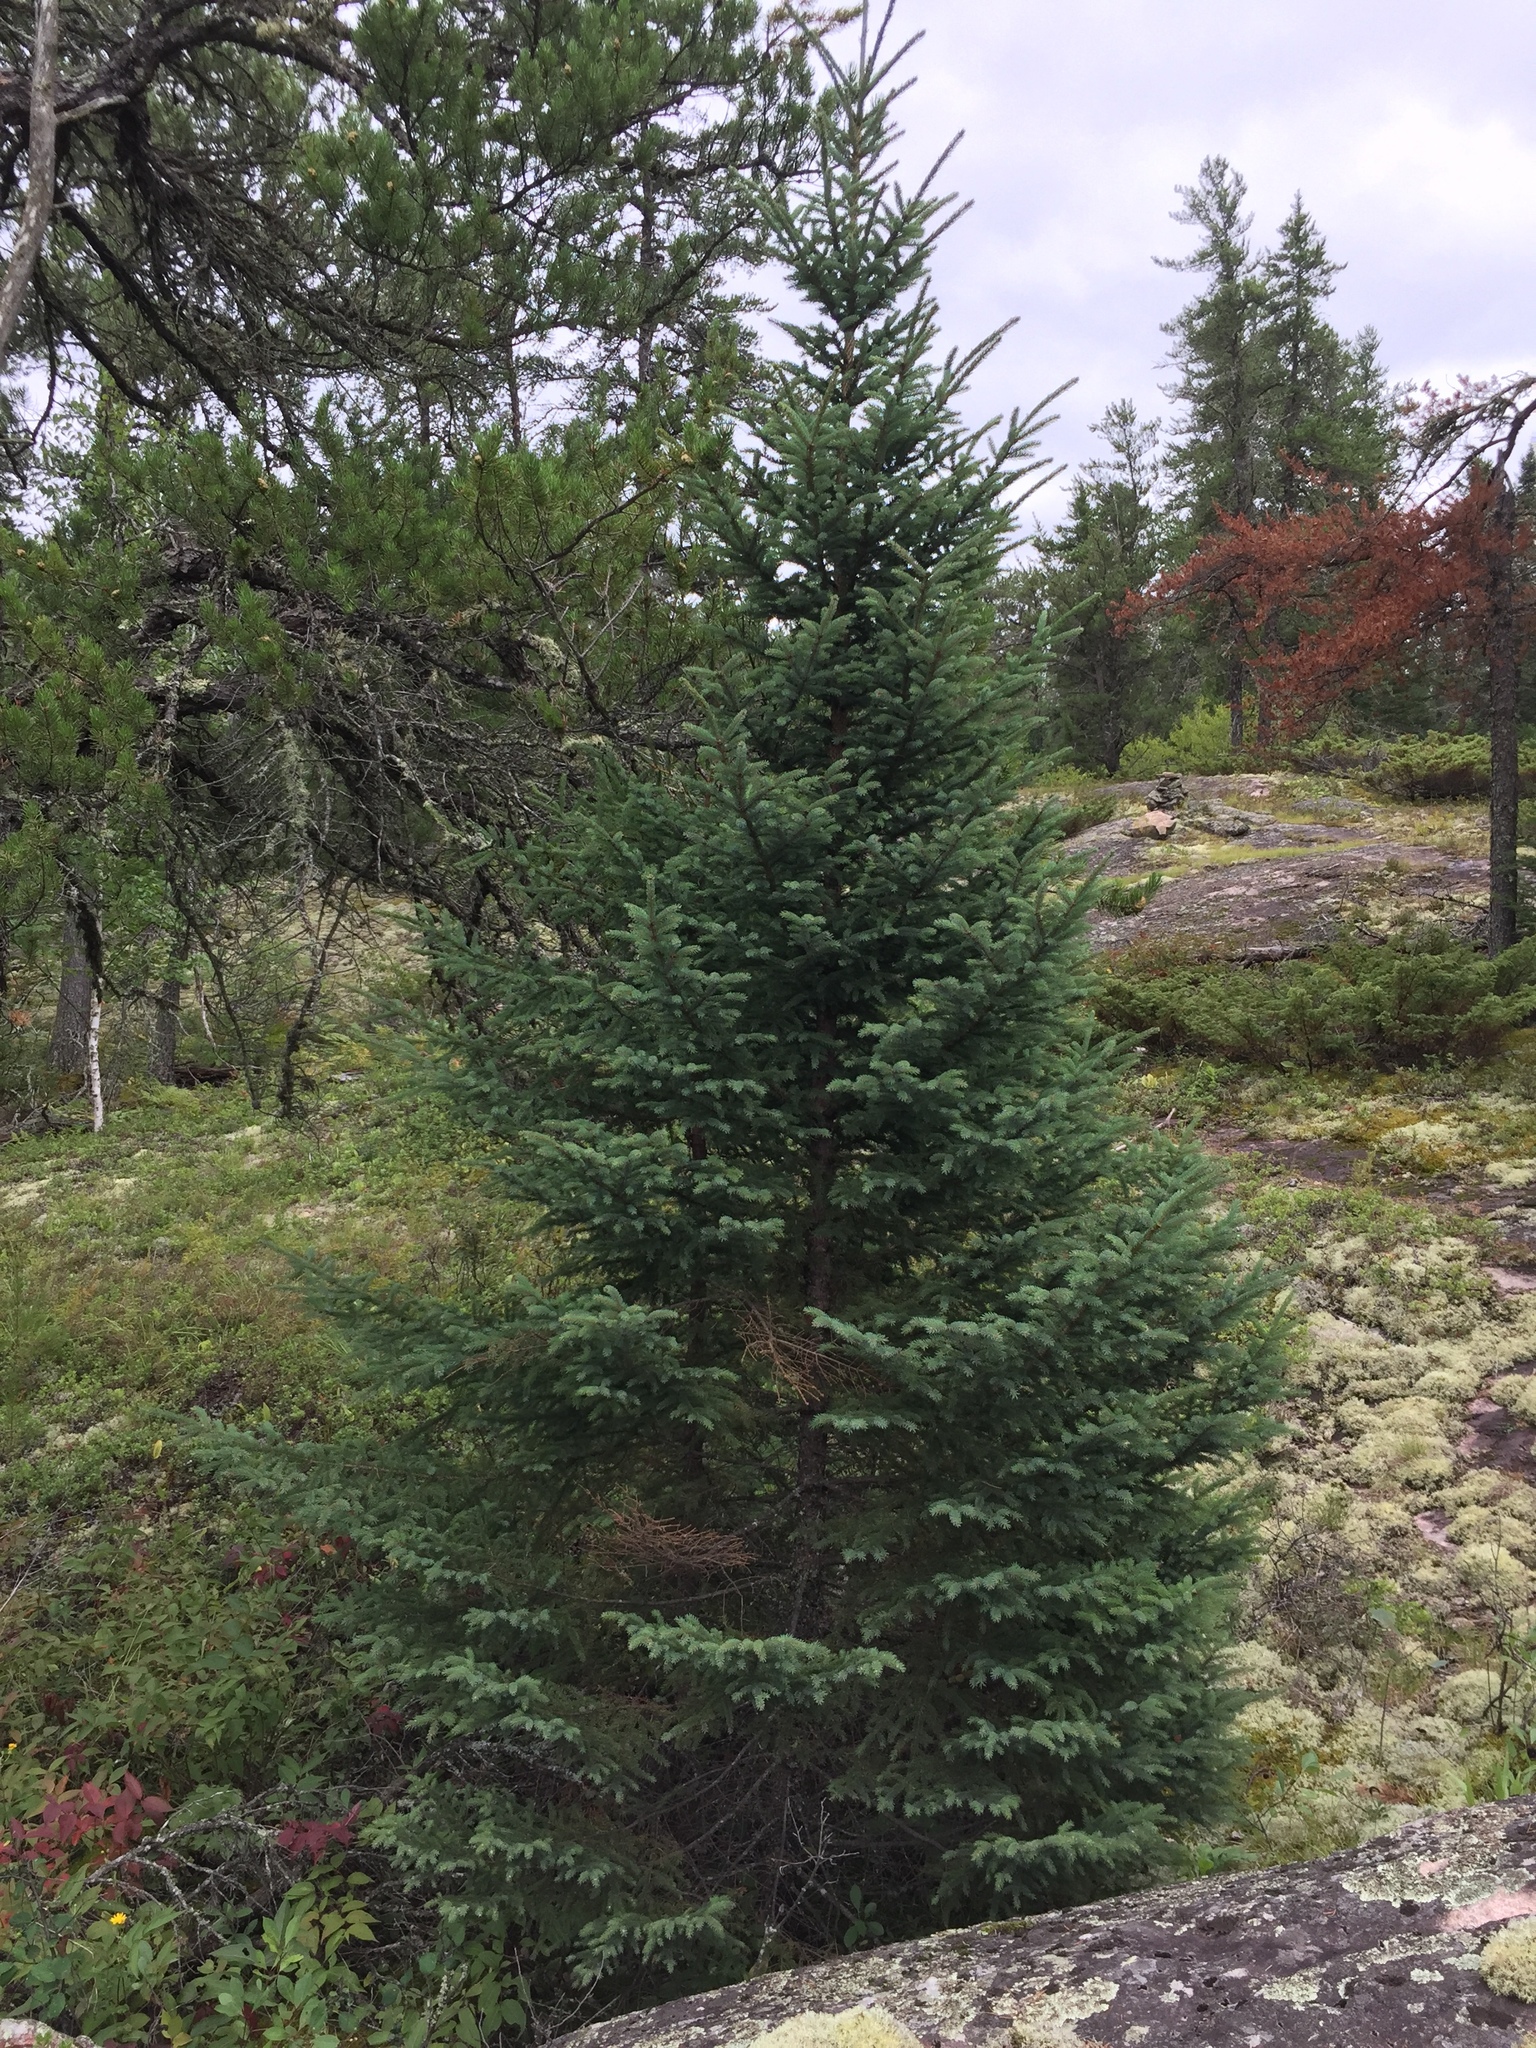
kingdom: Plantae
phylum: Tracheophyta
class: Pinopsida
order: Pinales
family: Pinaceae
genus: Picea
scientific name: Picea glauca
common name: White spruce
